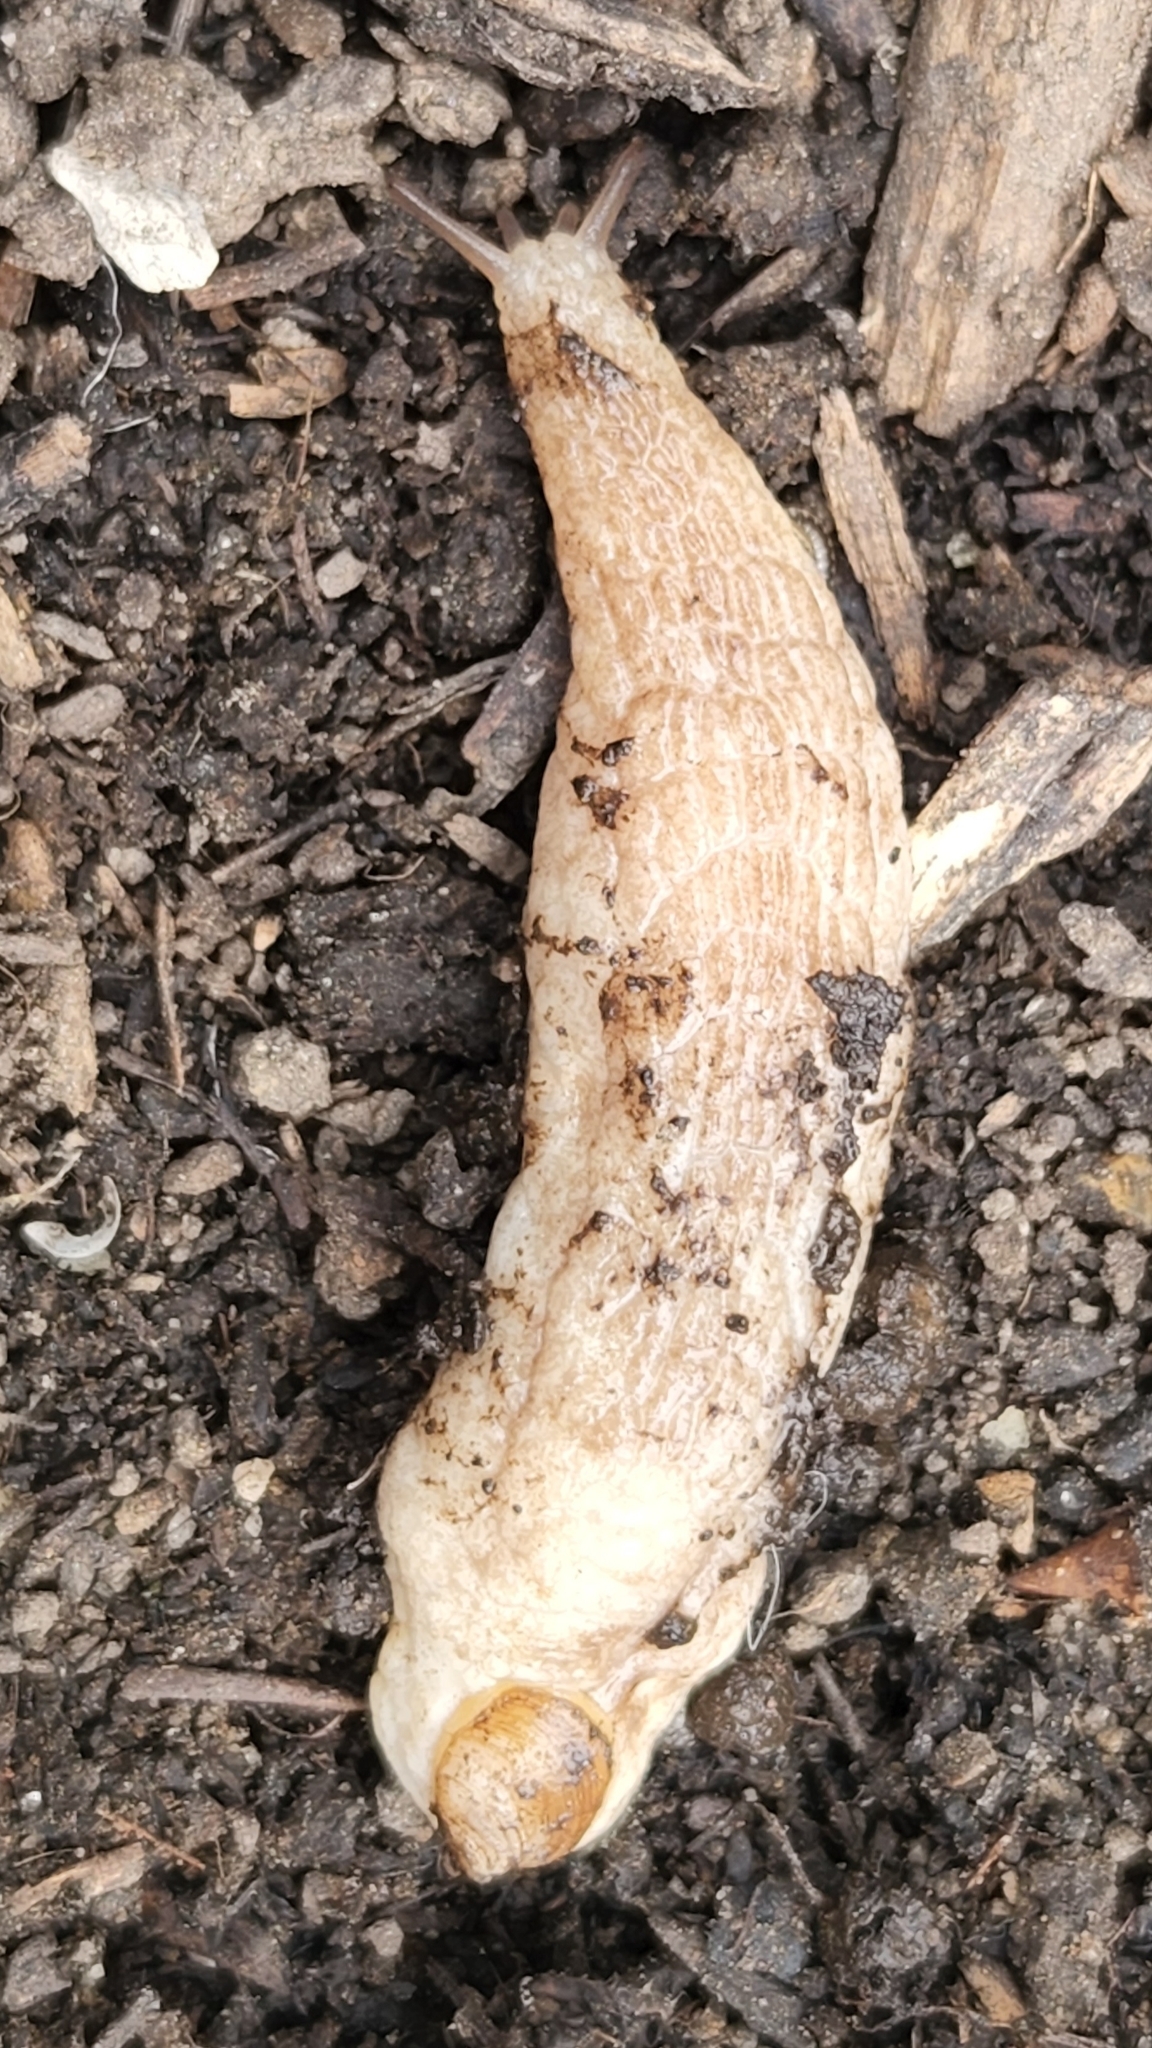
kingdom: Animalia
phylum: Mollusca
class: Gastropoda
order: Stylommatophora
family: Testacellidae
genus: Testacella
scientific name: Testacella haliotidea
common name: Shelled slug
